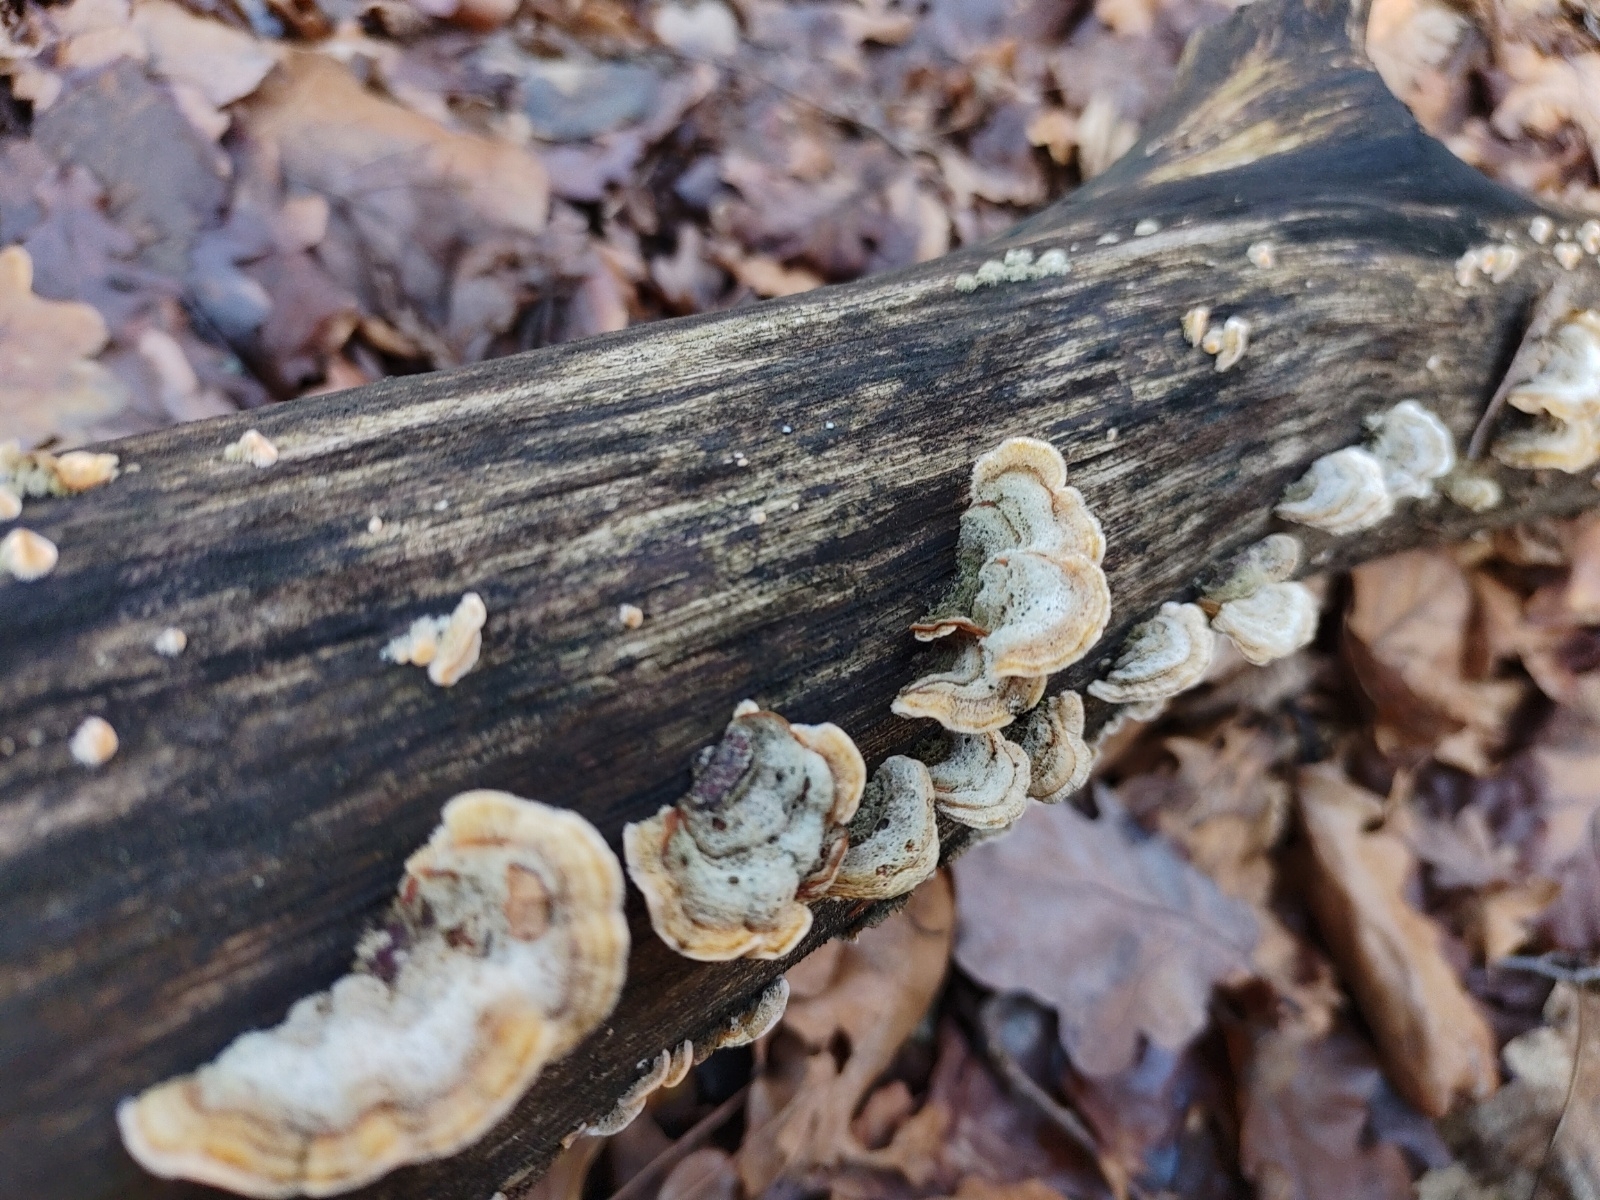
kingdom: Fungi
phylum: Basidiomycota
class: Agaricomycetes
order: Russulales
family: Stereaceae
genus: Stereum
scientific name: Stereum hirsutum
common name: Hairy curtain crust
